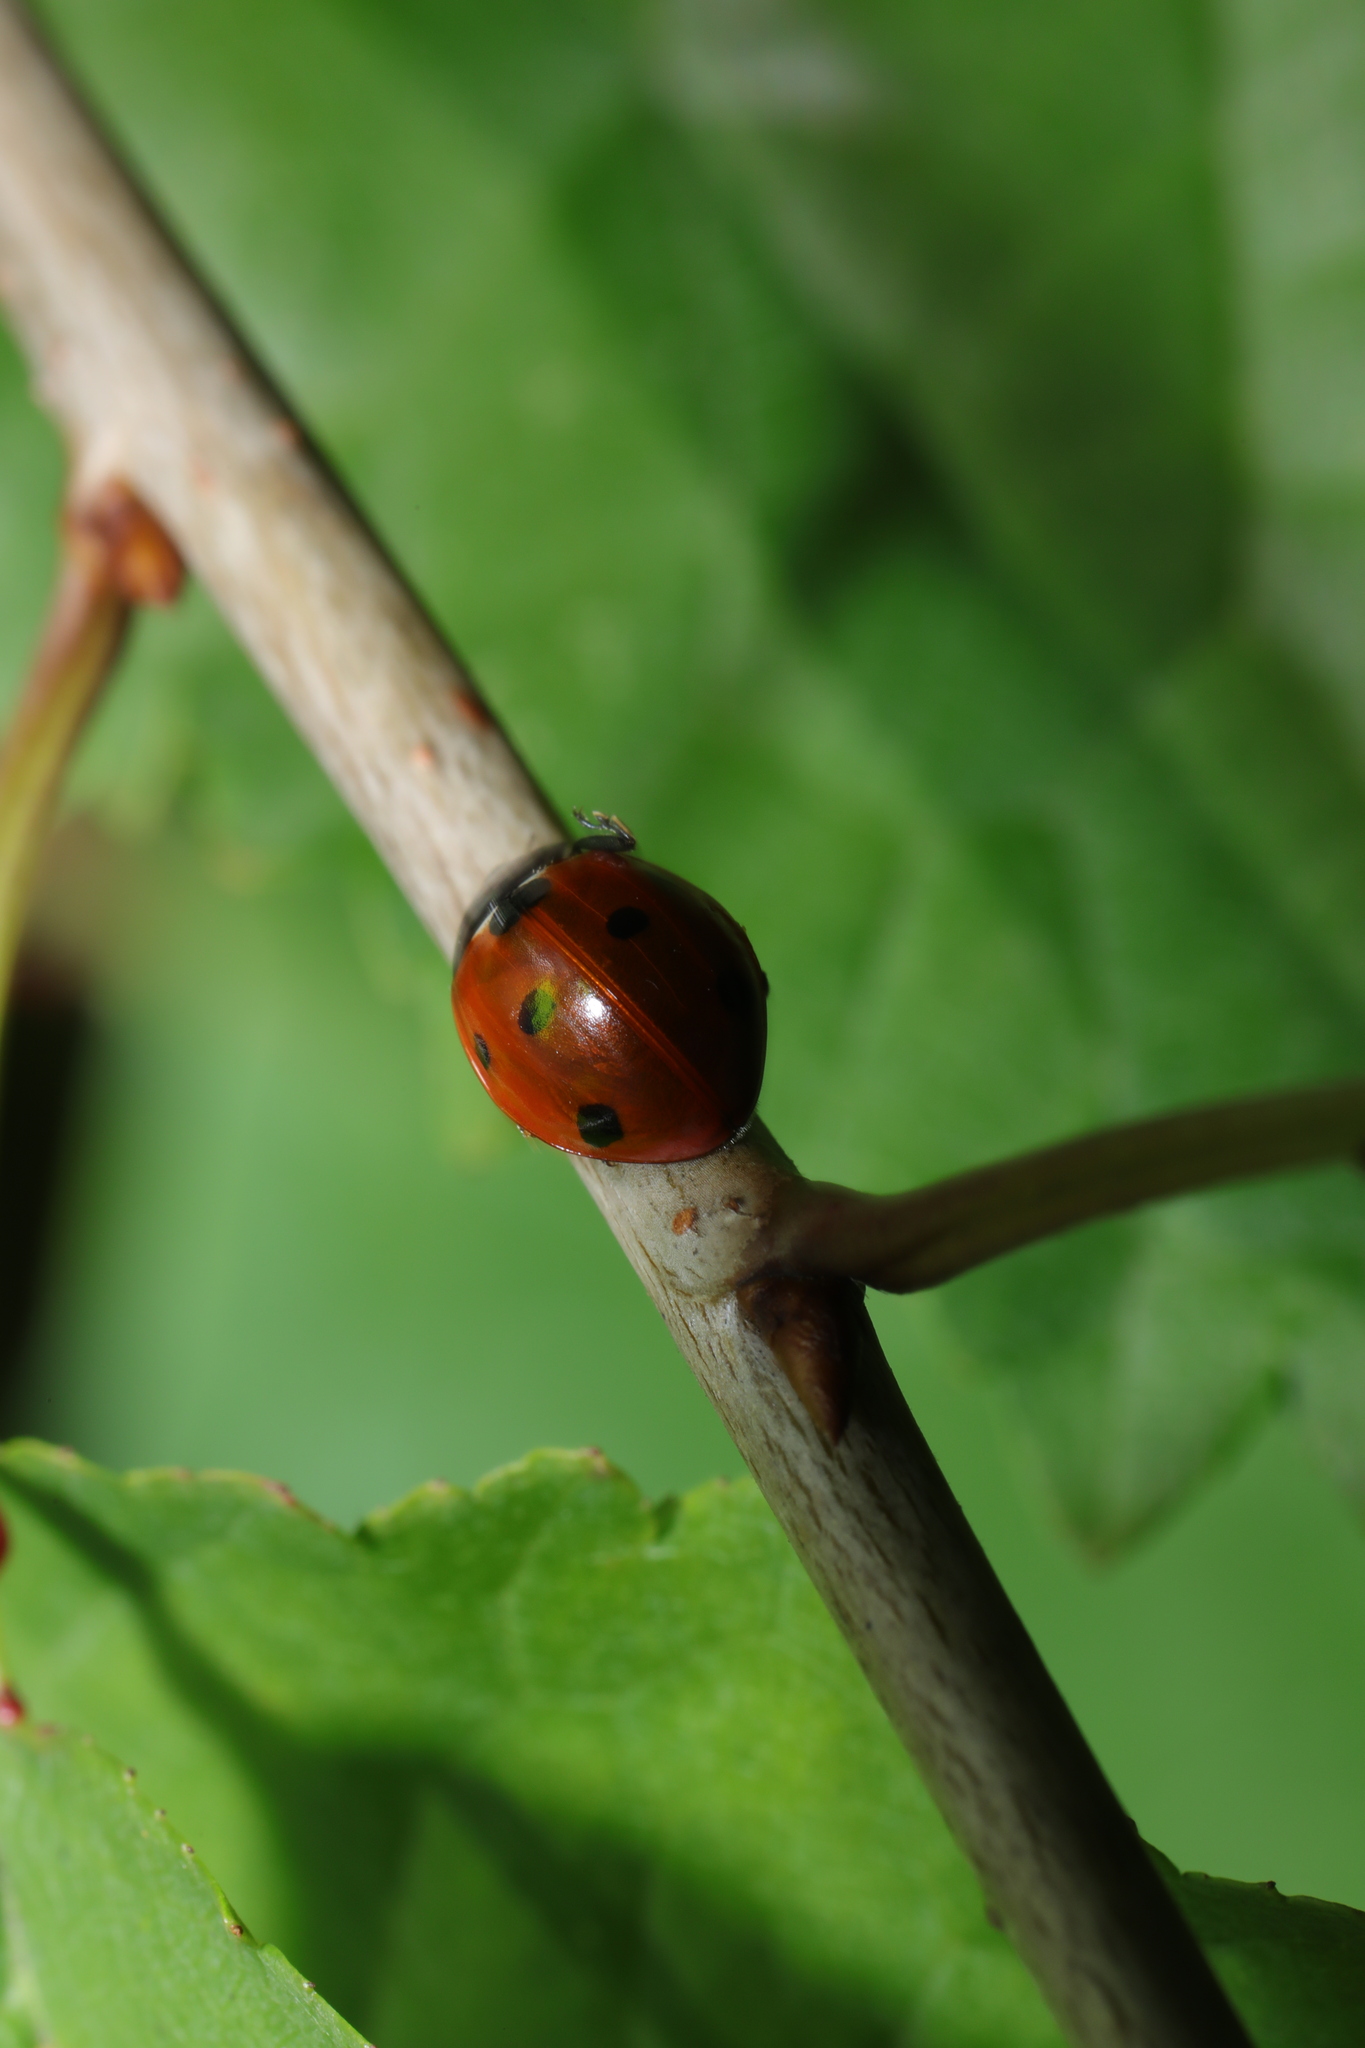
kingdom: Animalia
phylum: Arthropoda
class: Insecta
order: Coleoptera
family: Coccinellidae
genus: Coccinella
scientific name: Coccinella septempunctata
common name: Sevenspotted lady beetle
